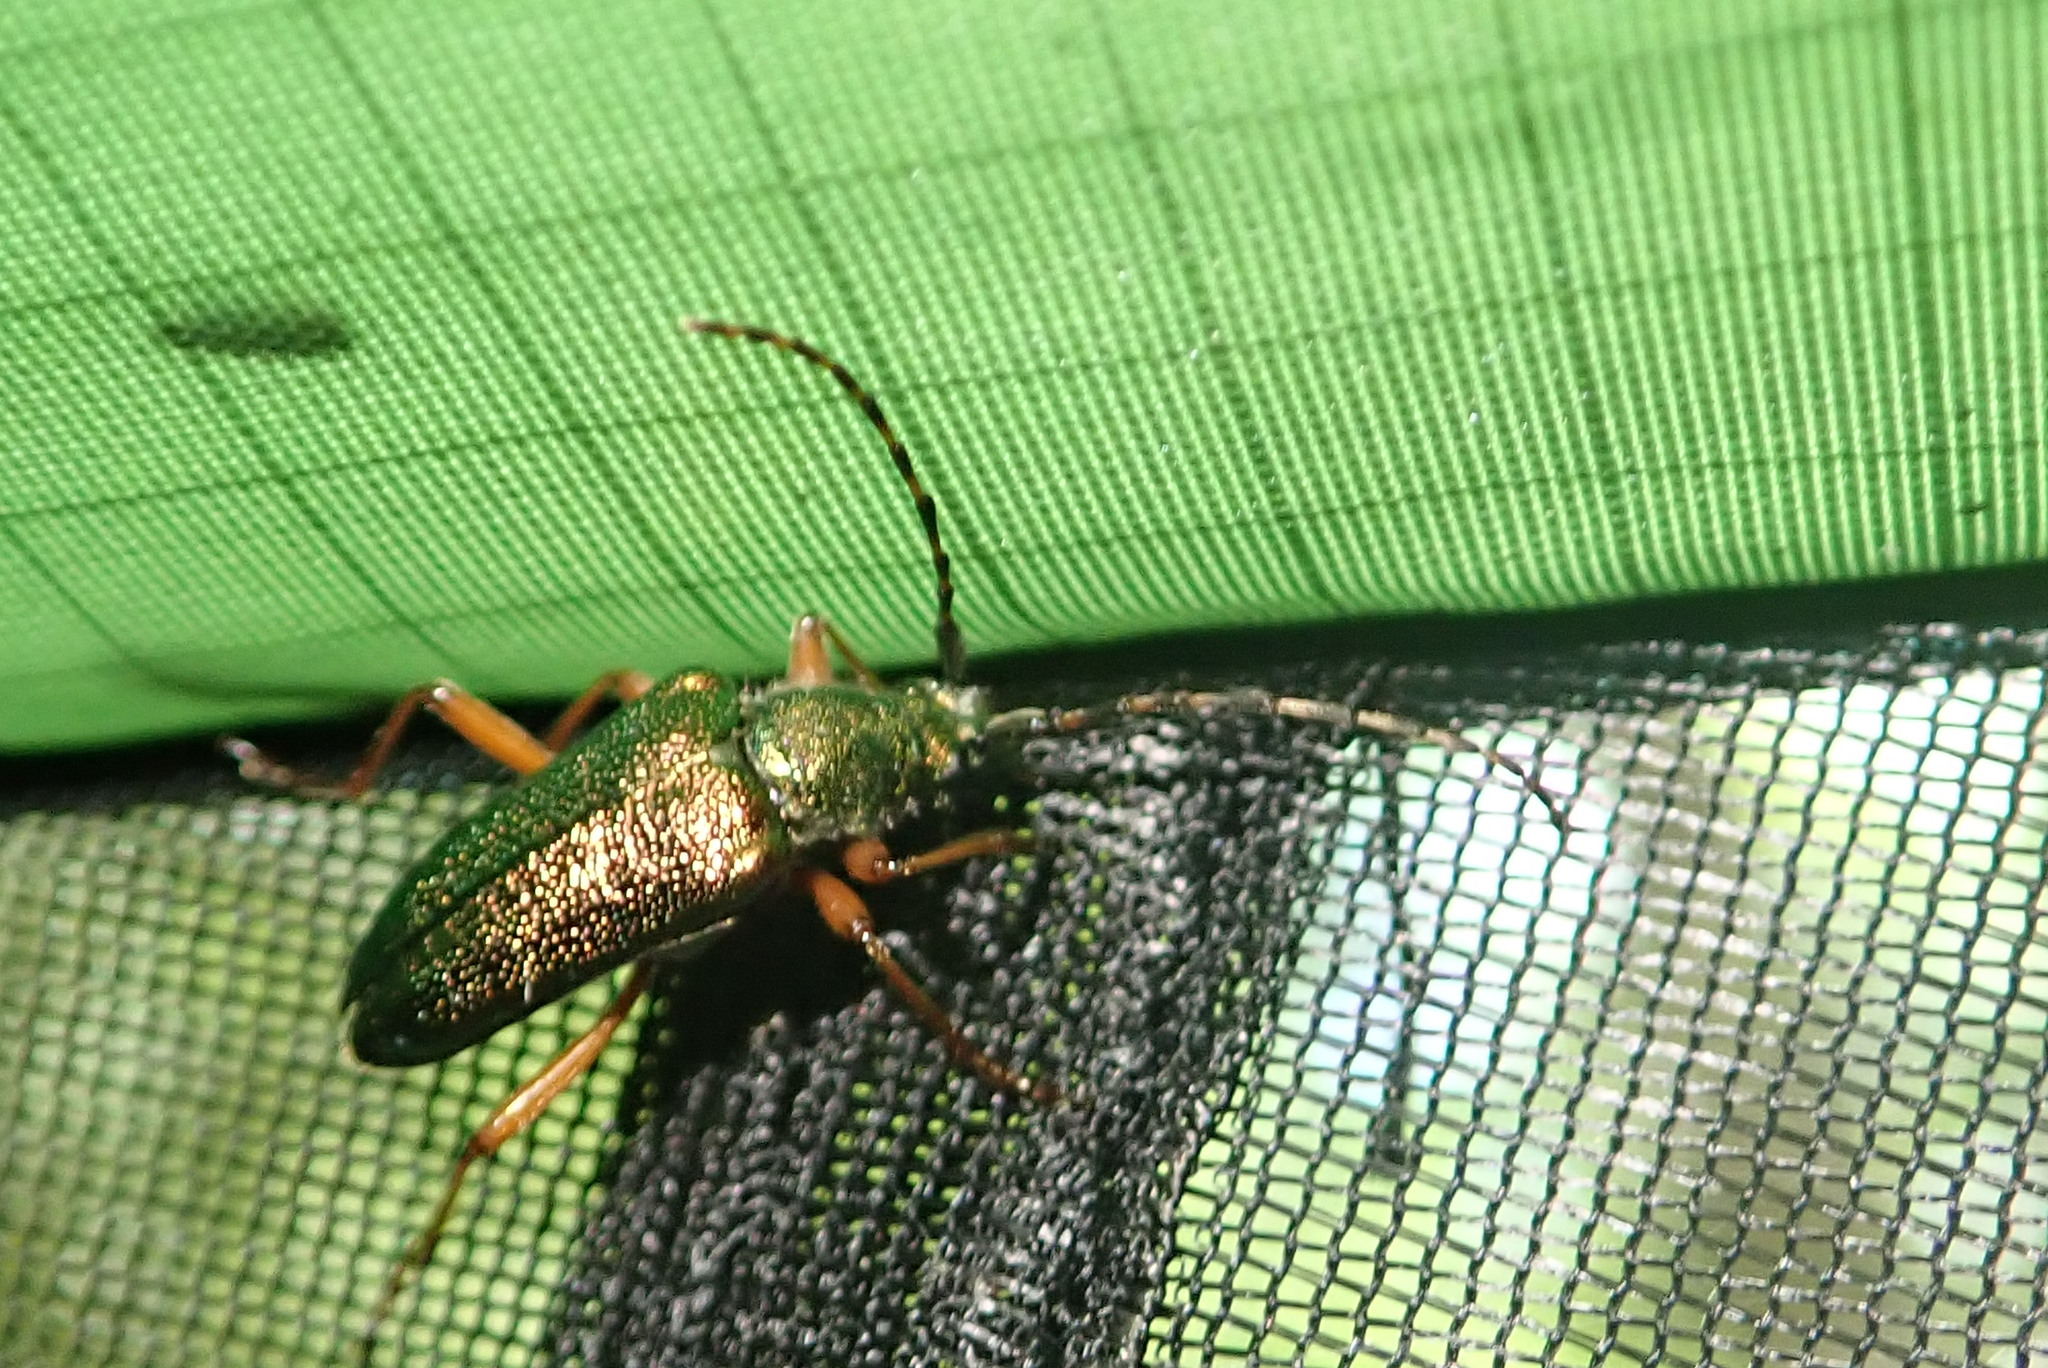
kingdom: Animalia
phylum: Arthropoda
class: Insecta
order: Coleoptera
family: Cerambycidae
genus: Anthophylax
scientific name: Anthophylax cyaneus
